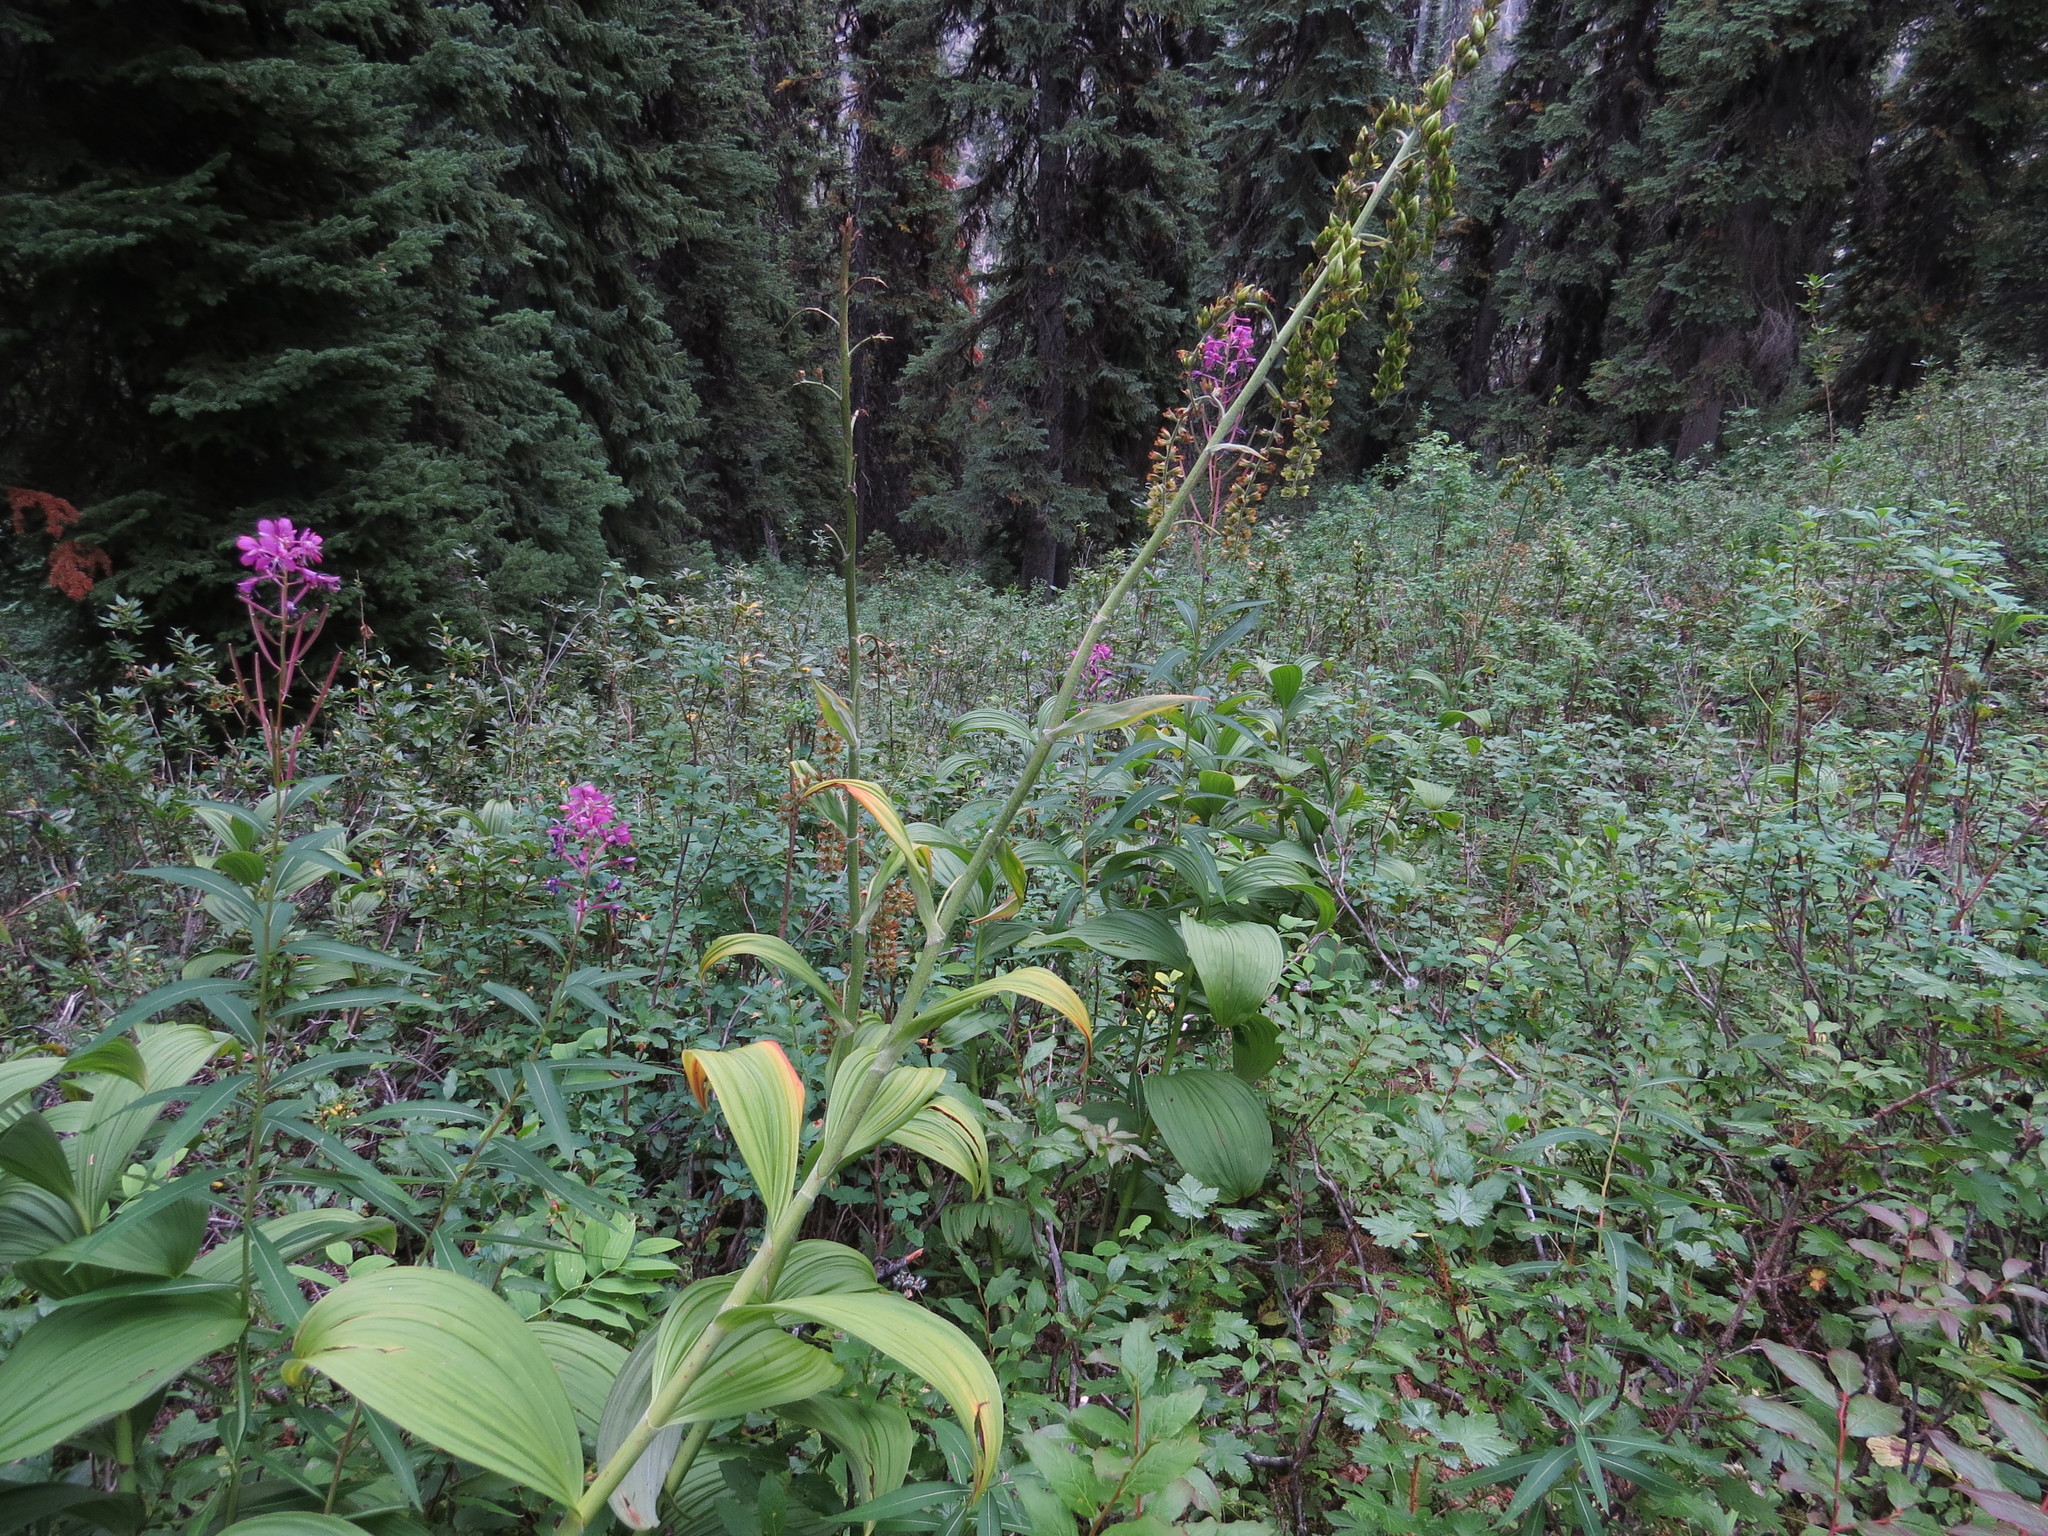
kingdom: Plantae
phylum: Tracheophyta
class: Liliopsida
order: Liliales
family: Melanthiaceae
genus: Veratrum
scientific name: Veratrum viride
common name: American false hellebore
